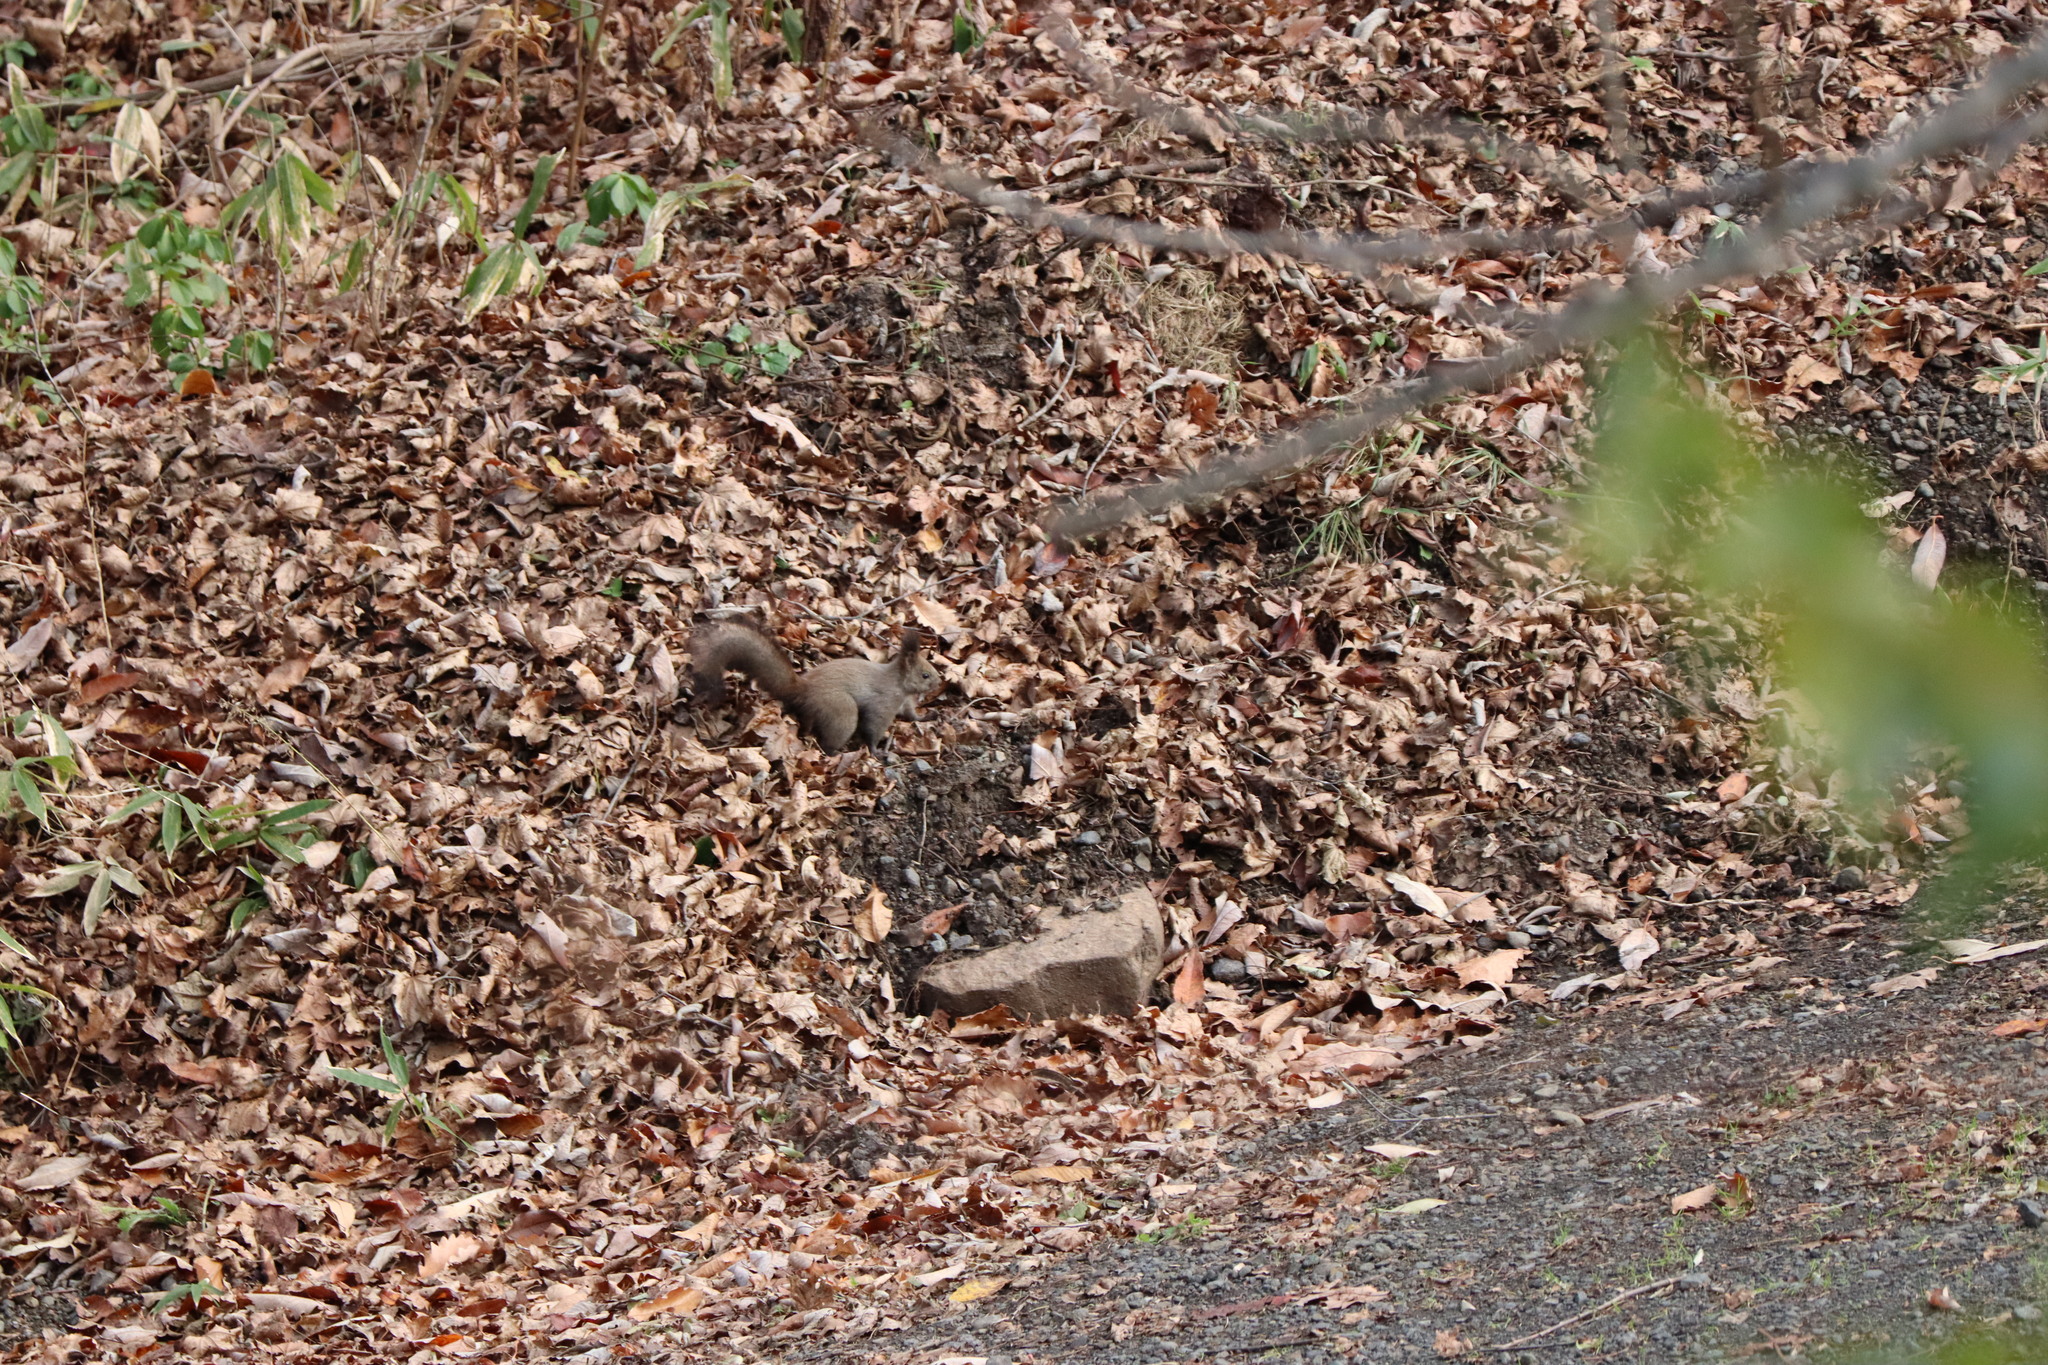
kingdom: Animalia
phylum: Chordata
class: Mammalia
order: Rodentia
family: Sciuridae
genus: Sciurus
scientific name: Sciurus vulgaris
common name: Eurasian red squirrel
